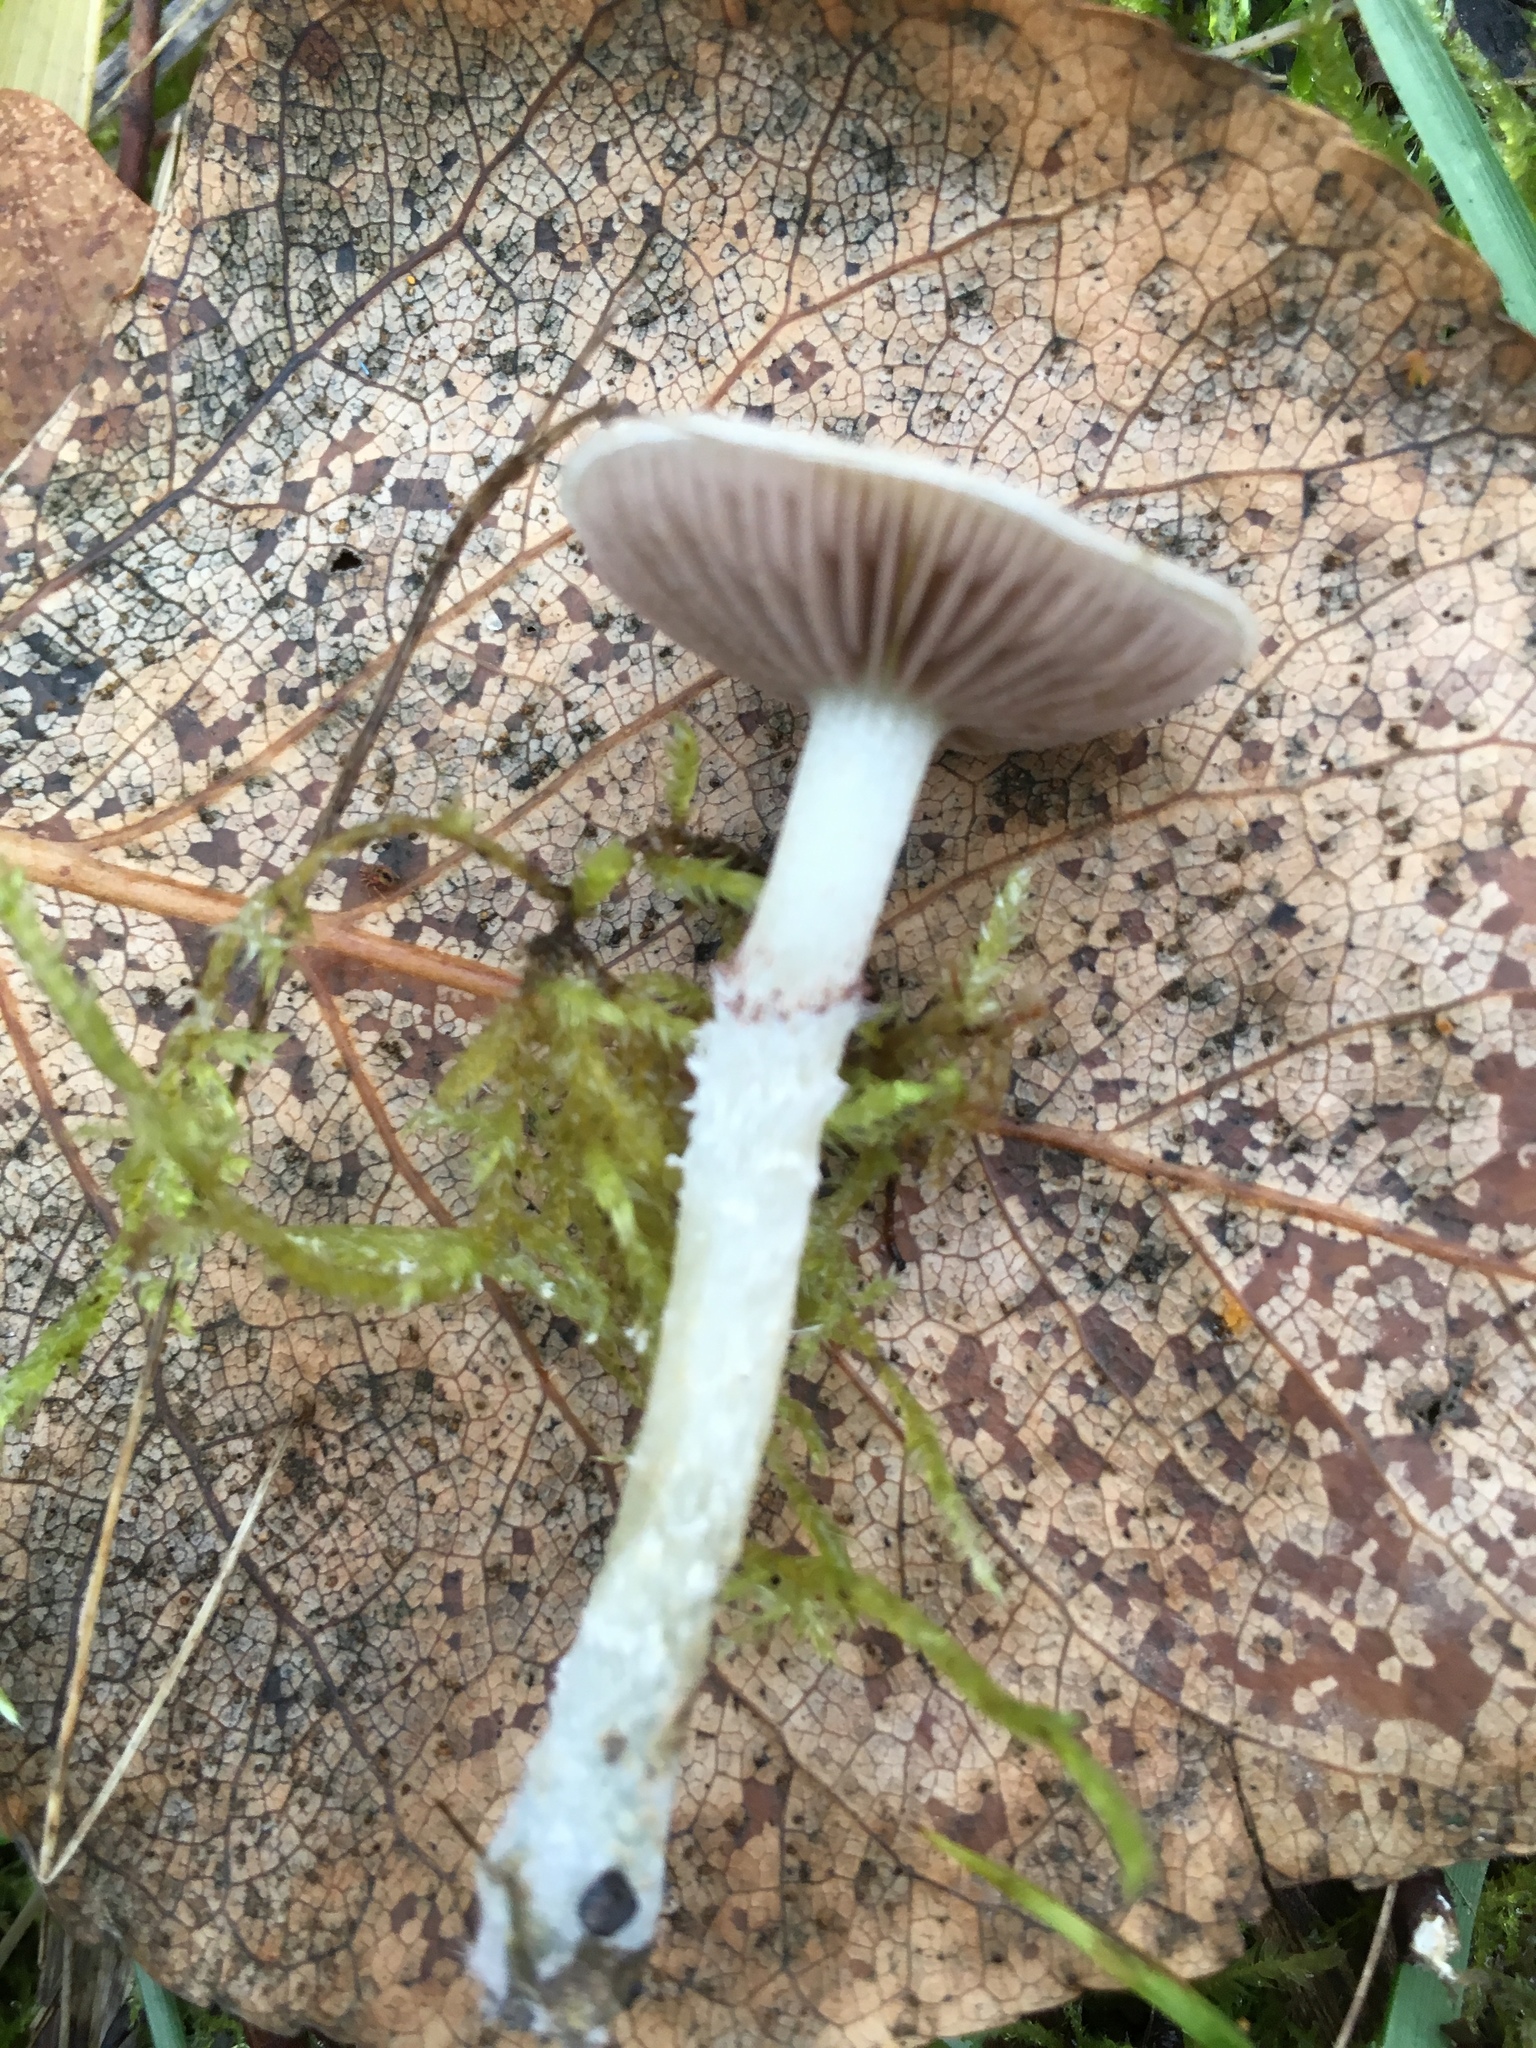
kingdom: Fungi
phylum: Basidiomycota
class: Agaricomycetes
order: Agaricales
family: Strophariaceae
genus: Stropharia
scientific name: Stropharia caerulea
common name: Blue roundhead
